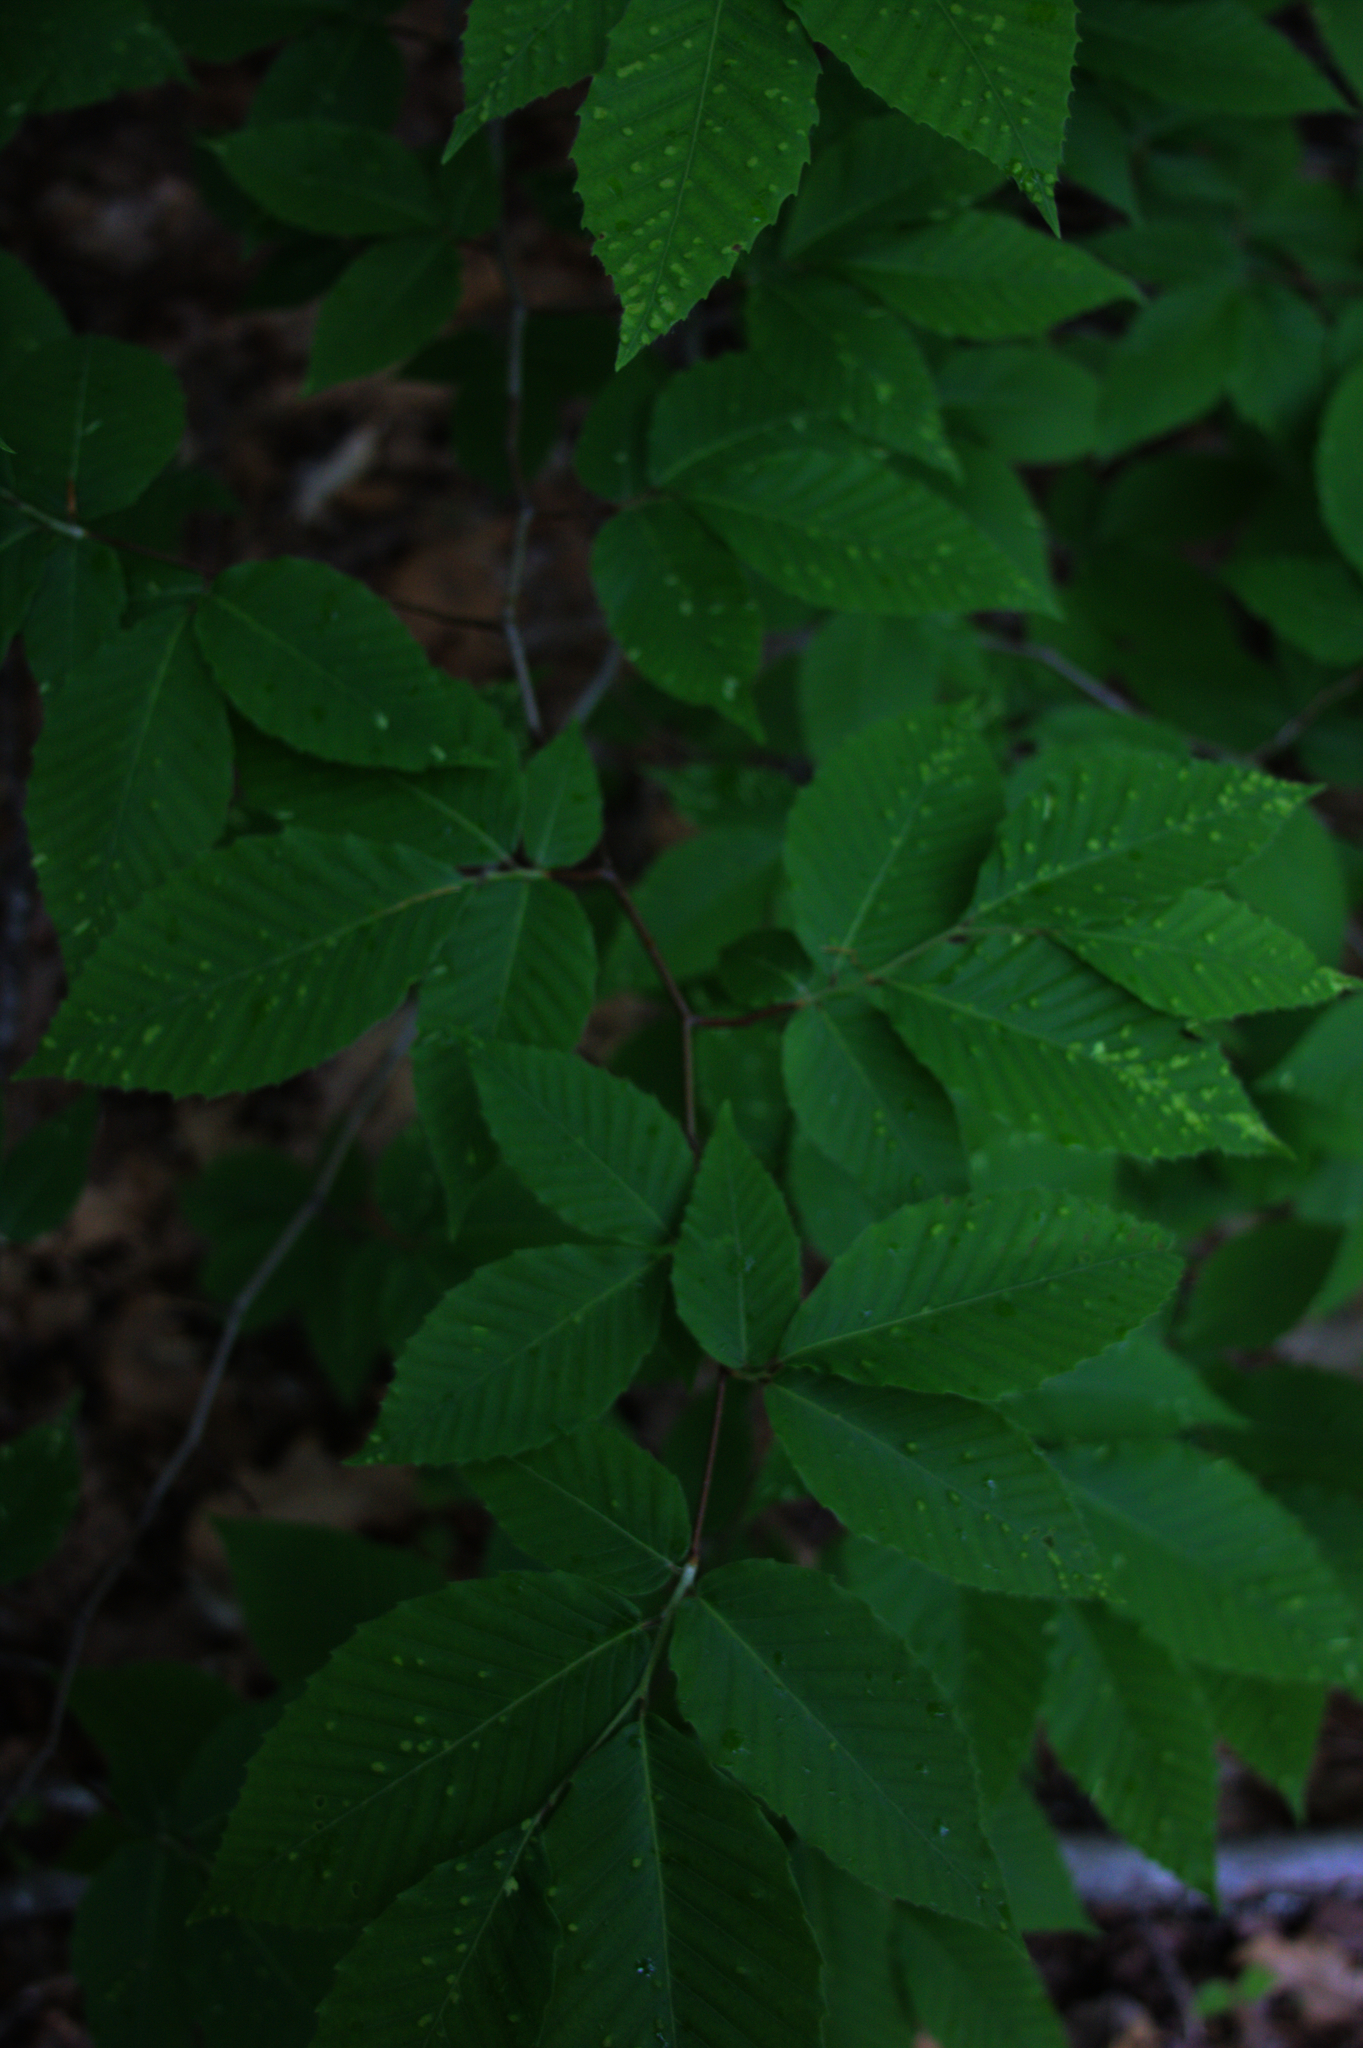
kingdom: Plantae
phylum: Tracheophyta
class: Magnoliopsida
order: Fagales
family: Fagaceae
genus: Fagus
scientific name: Fagus grandifolia
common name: American beech
